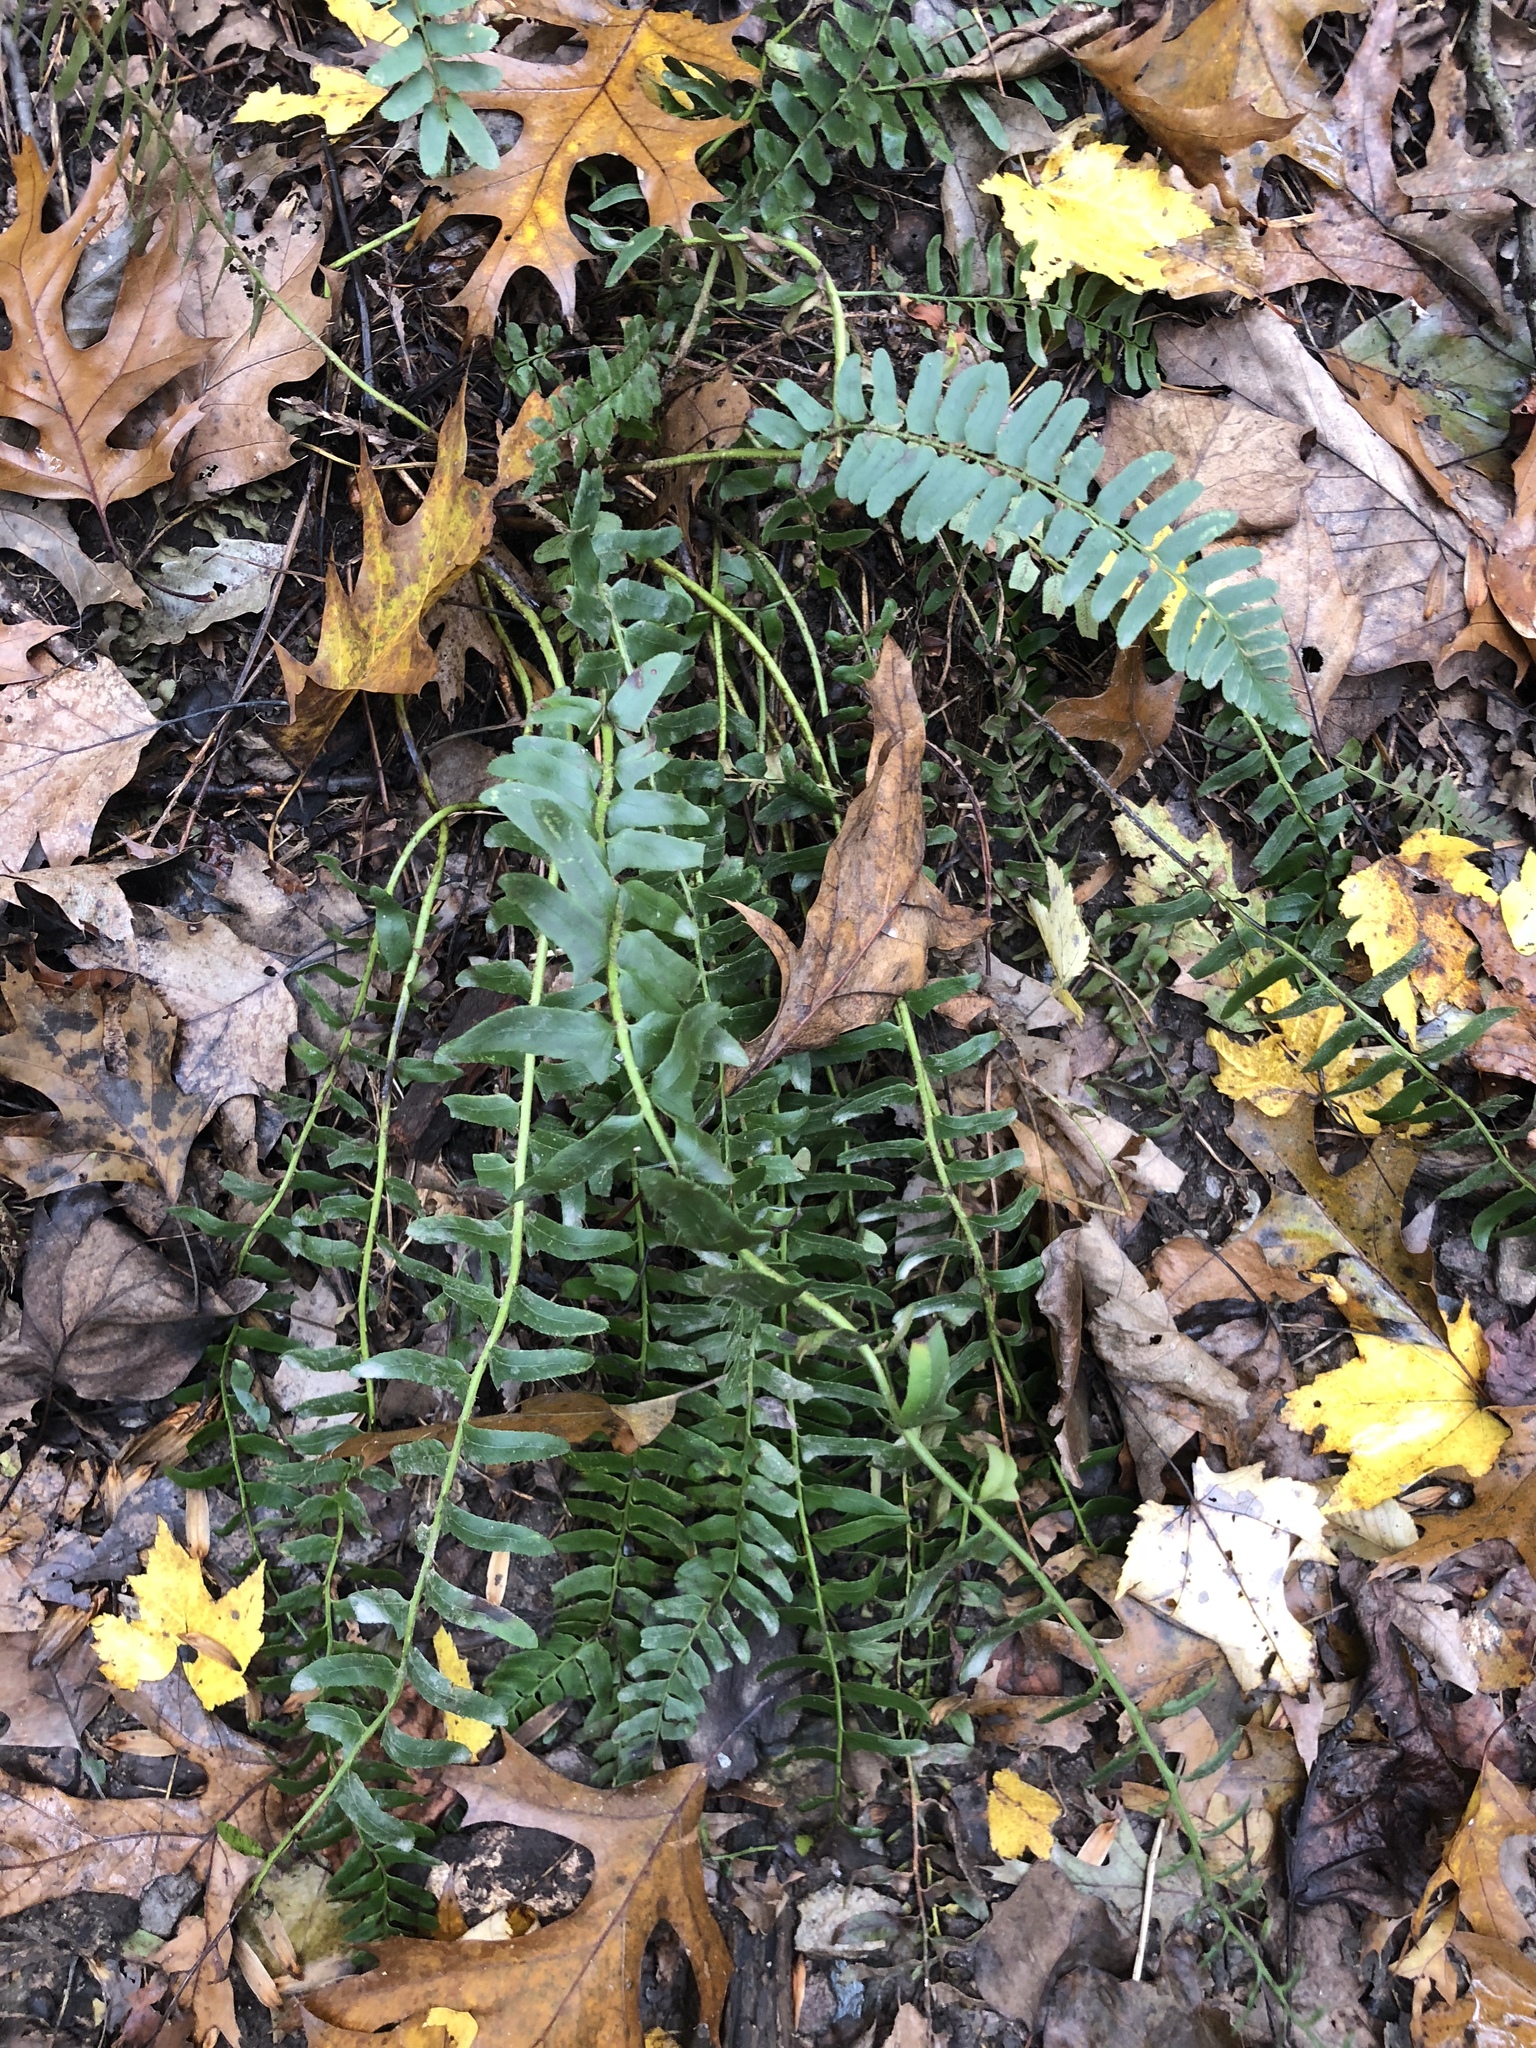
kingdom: Plantae
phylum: Tracheophyta
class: Polypodiopsida
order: Polypodiales
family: Dryopteridaceae
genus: Polystichum
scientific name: Polystichum acrostichoides
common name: Christmas fern
